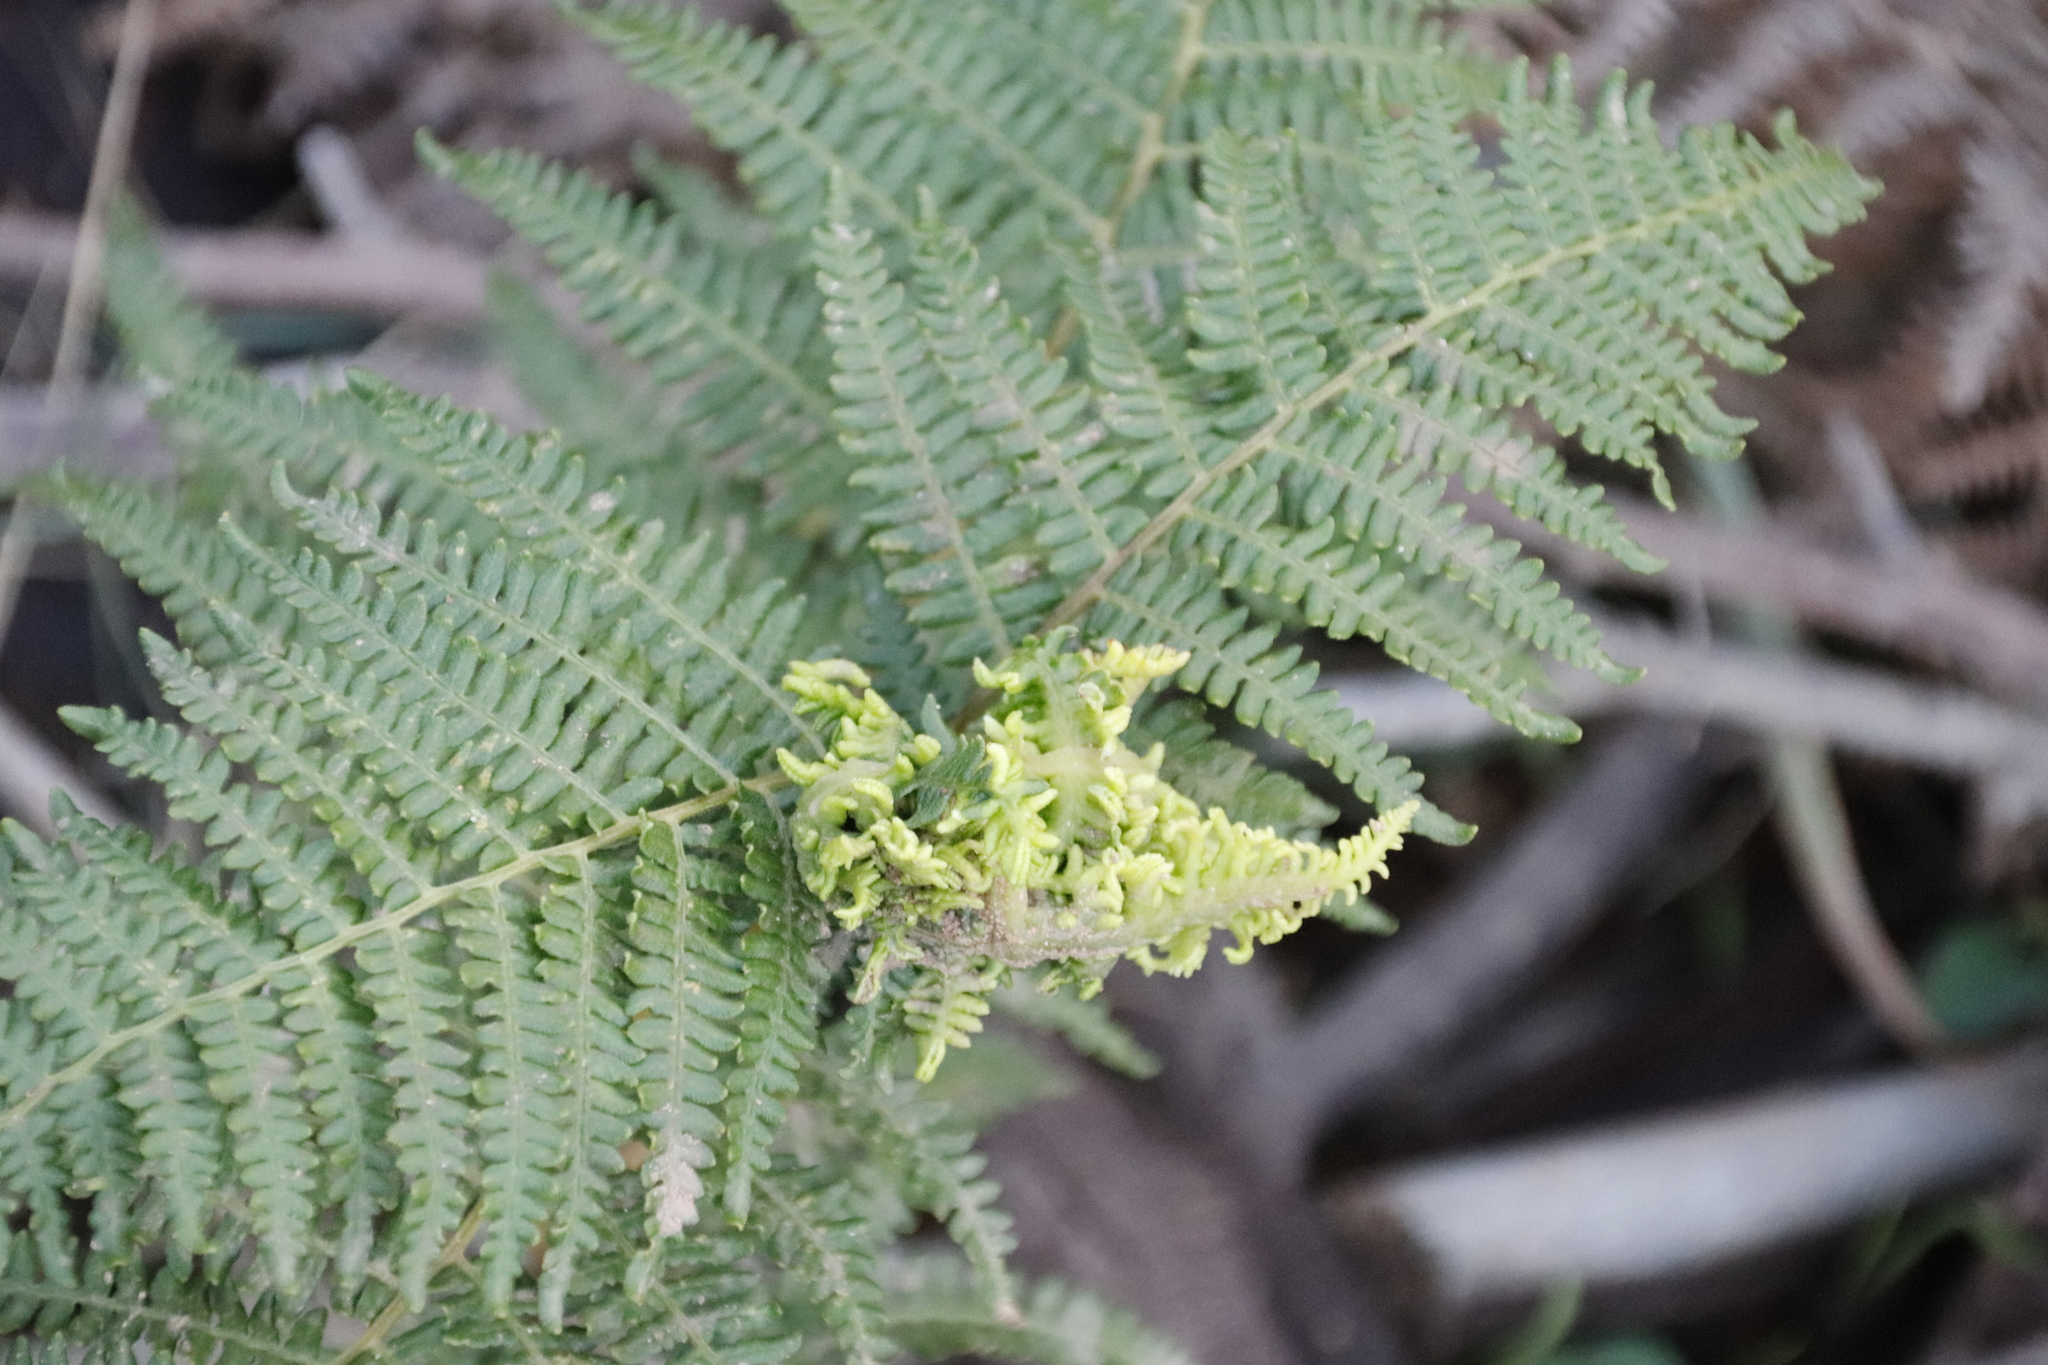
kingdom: Plantae
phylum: Tracheophyta
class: Polypodiopsida
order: Polypodiales
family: Dennstaedtiaceae
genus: Pteridium
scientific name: Pteridium aquilinum
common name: Bracken
